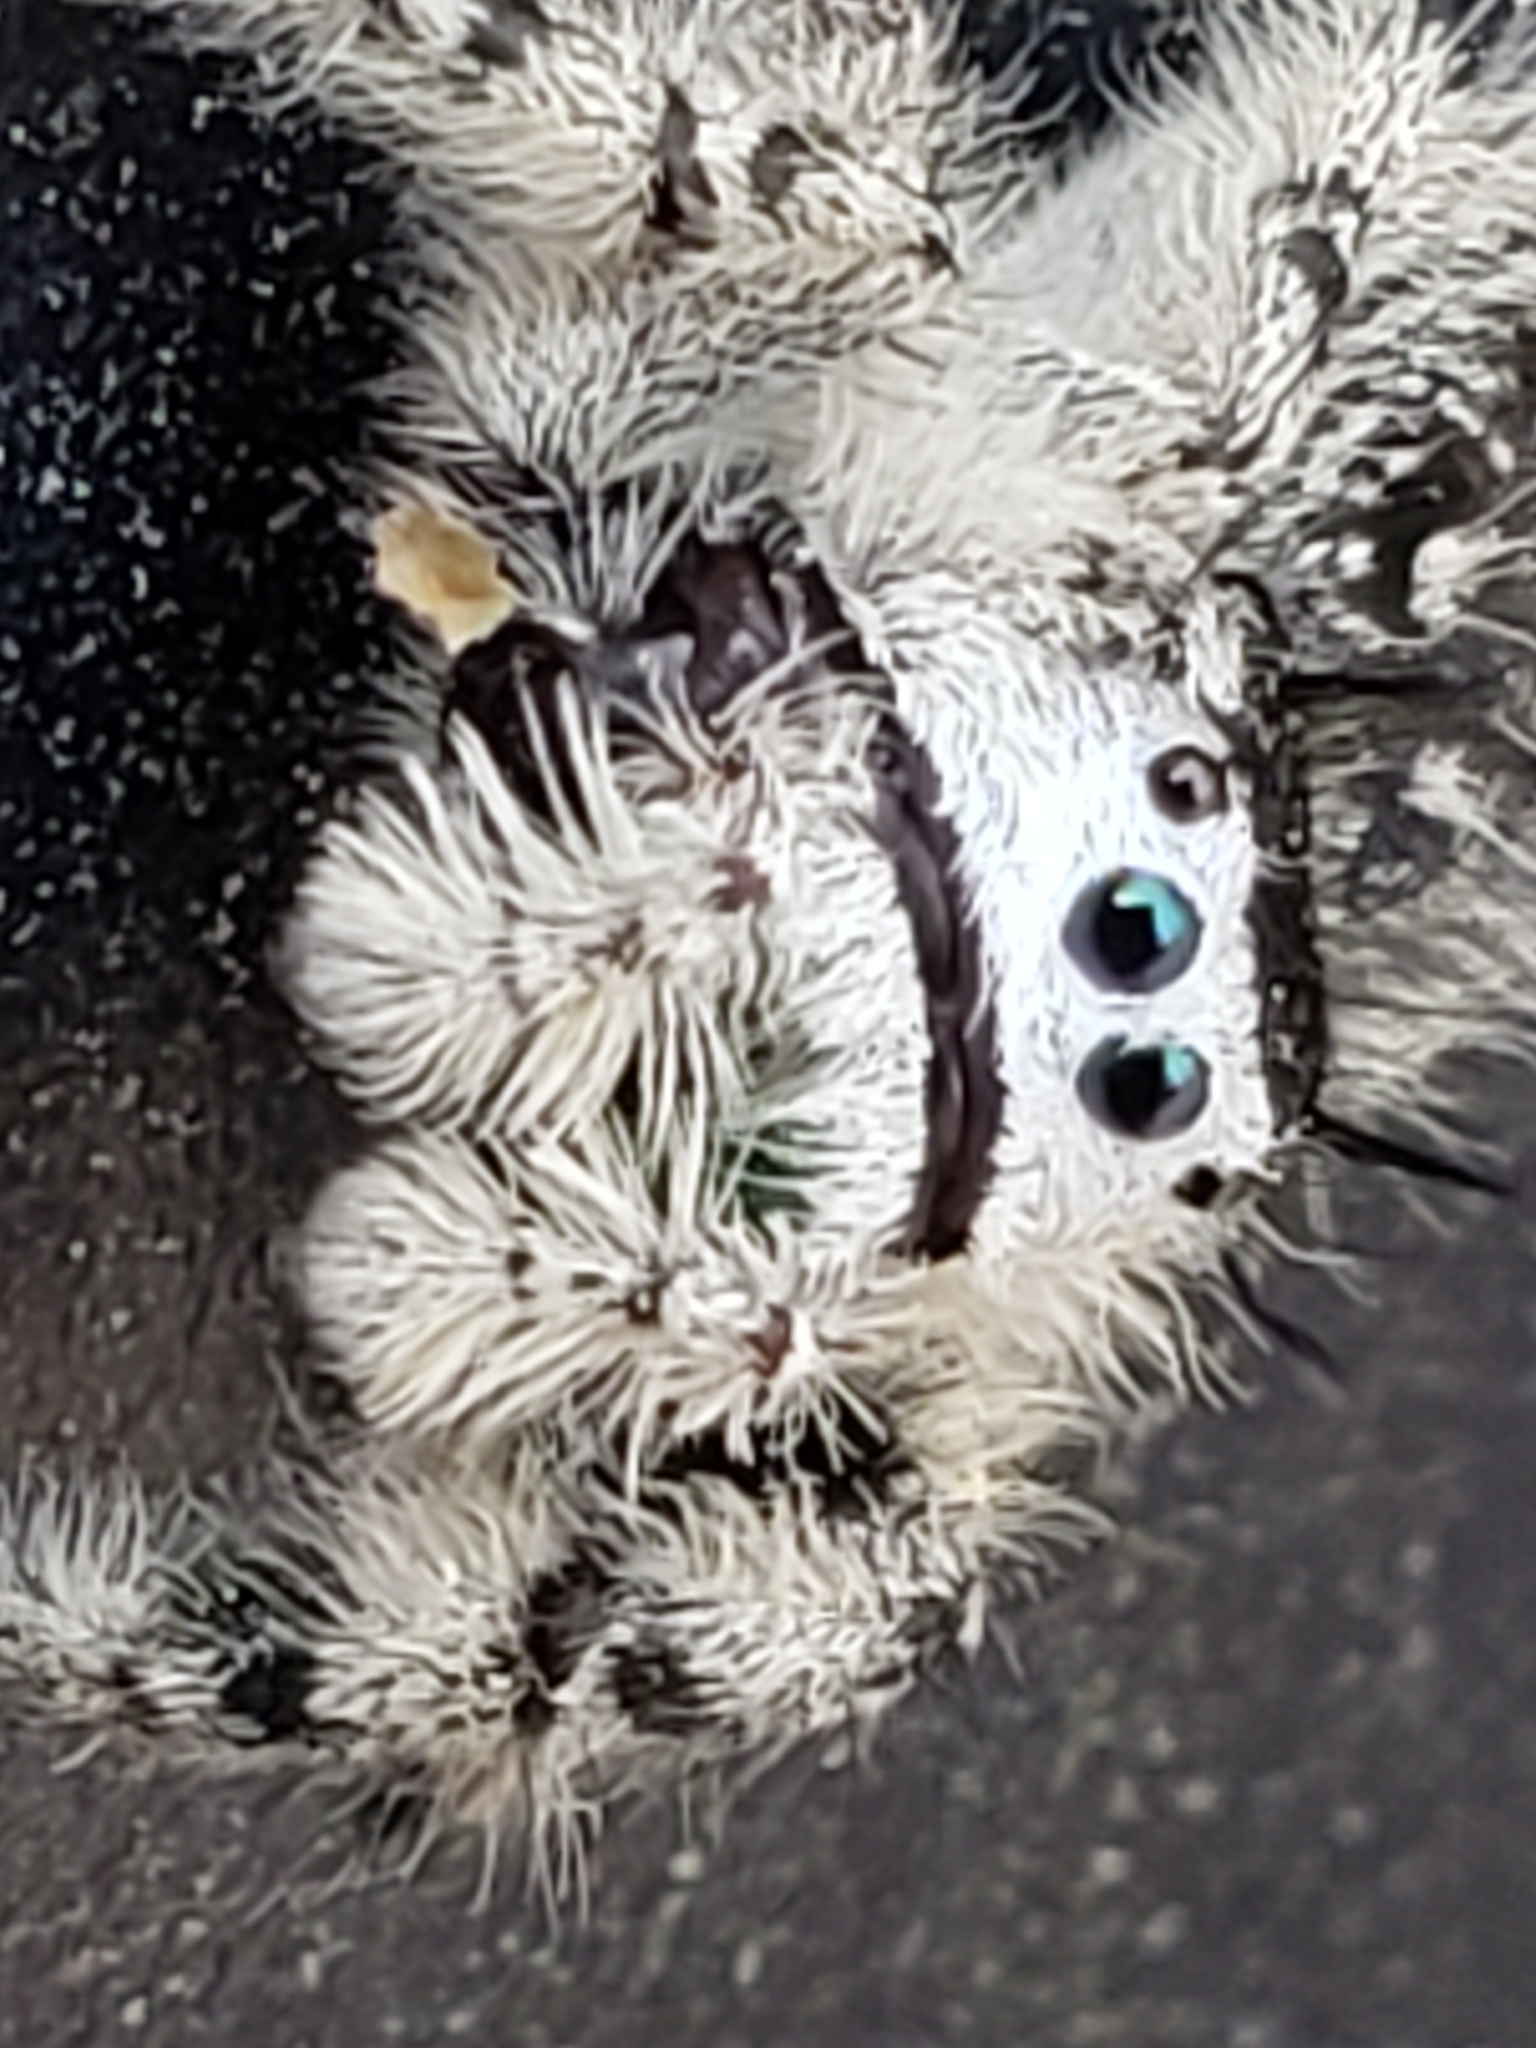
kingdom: Animalia
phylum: Arthropoda
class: Arachnida
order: Araneae
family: Salticidae
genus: Phidippus
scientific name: Phidippus otiosus
